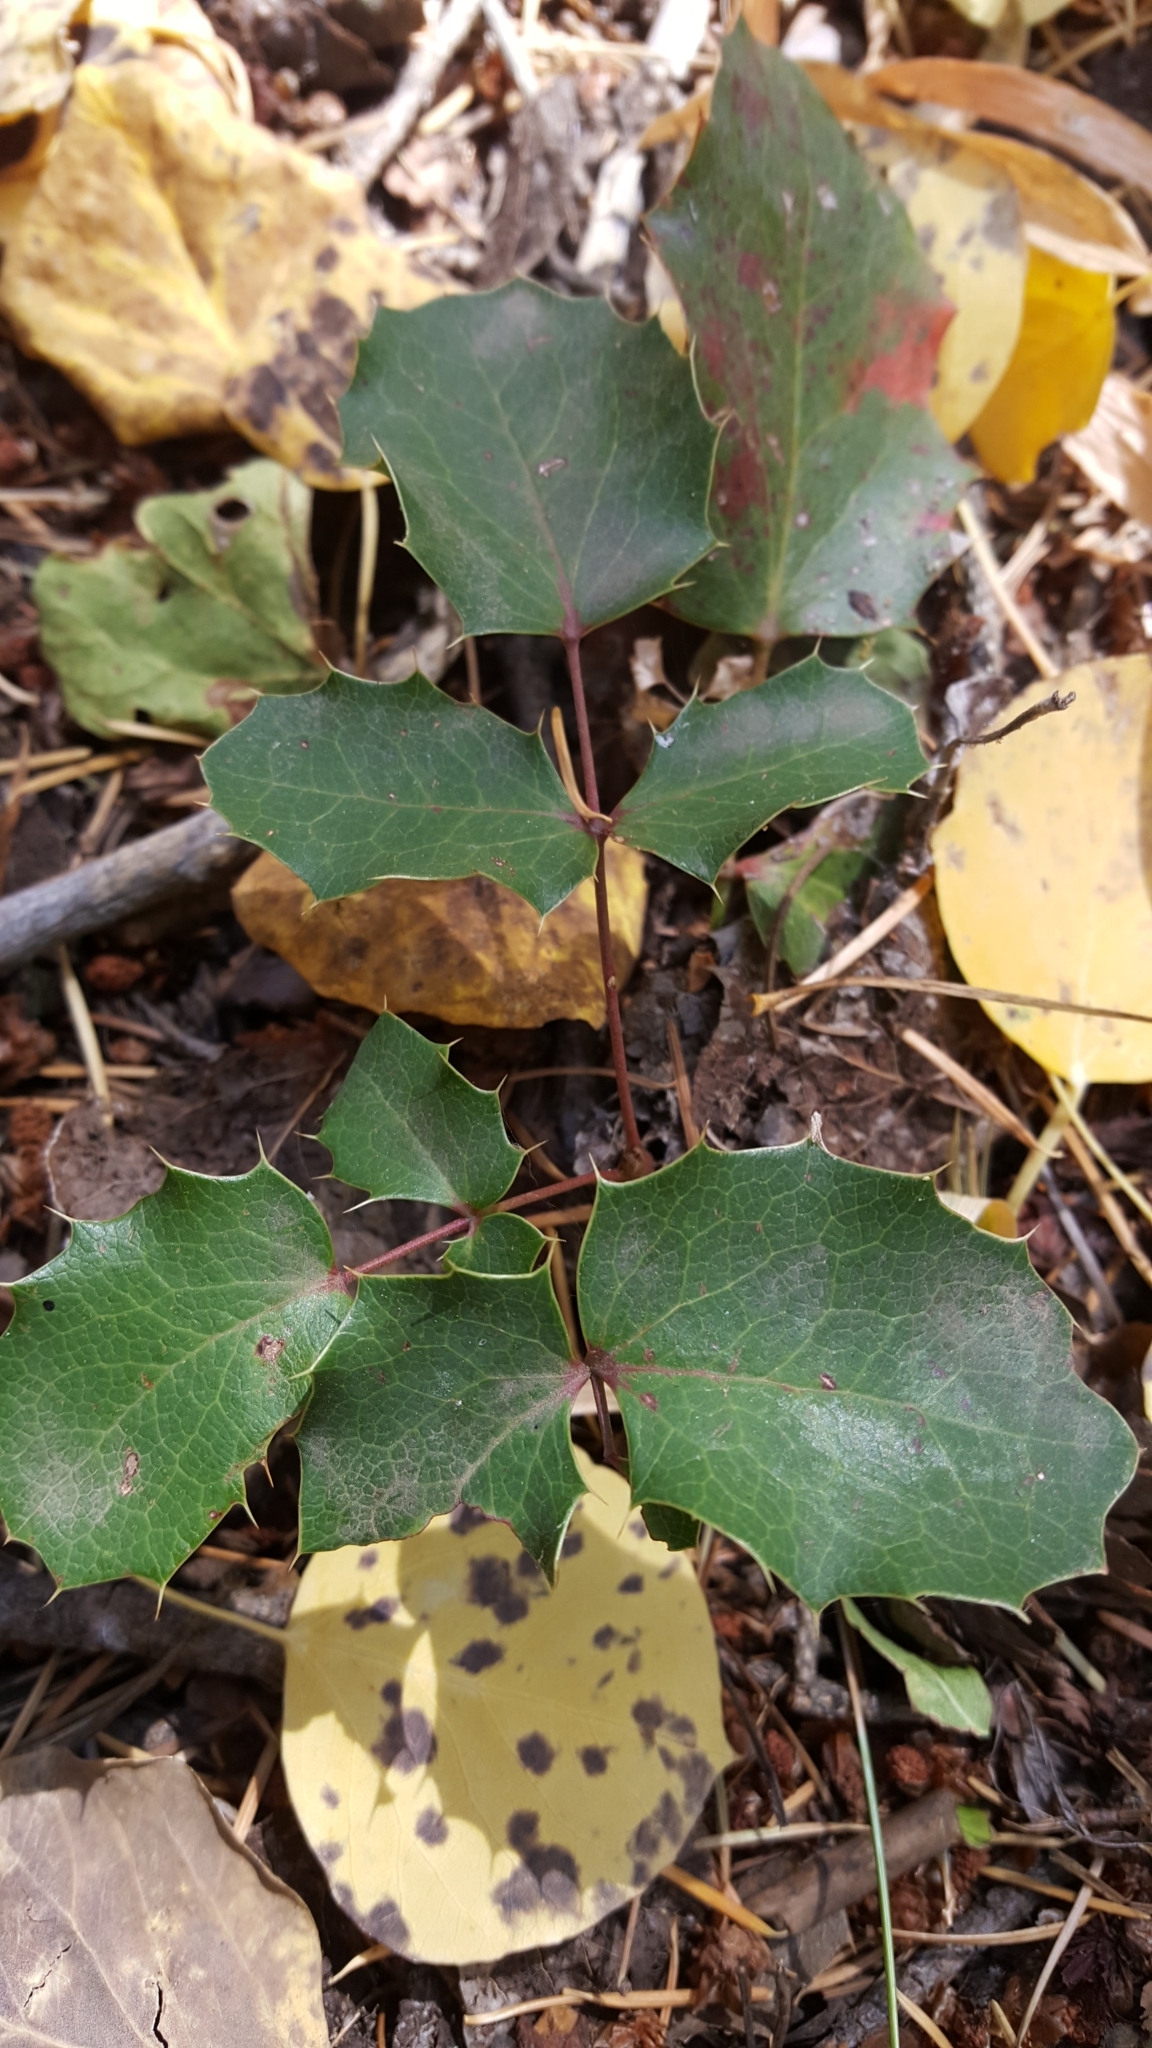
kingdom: Plantae
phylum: Tracheophyta
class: Magnoliopsida
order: Ranunculales
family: Berberidaceae
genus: Mahonia
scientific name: Mahonia repens
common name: Creeping oregon-grape
